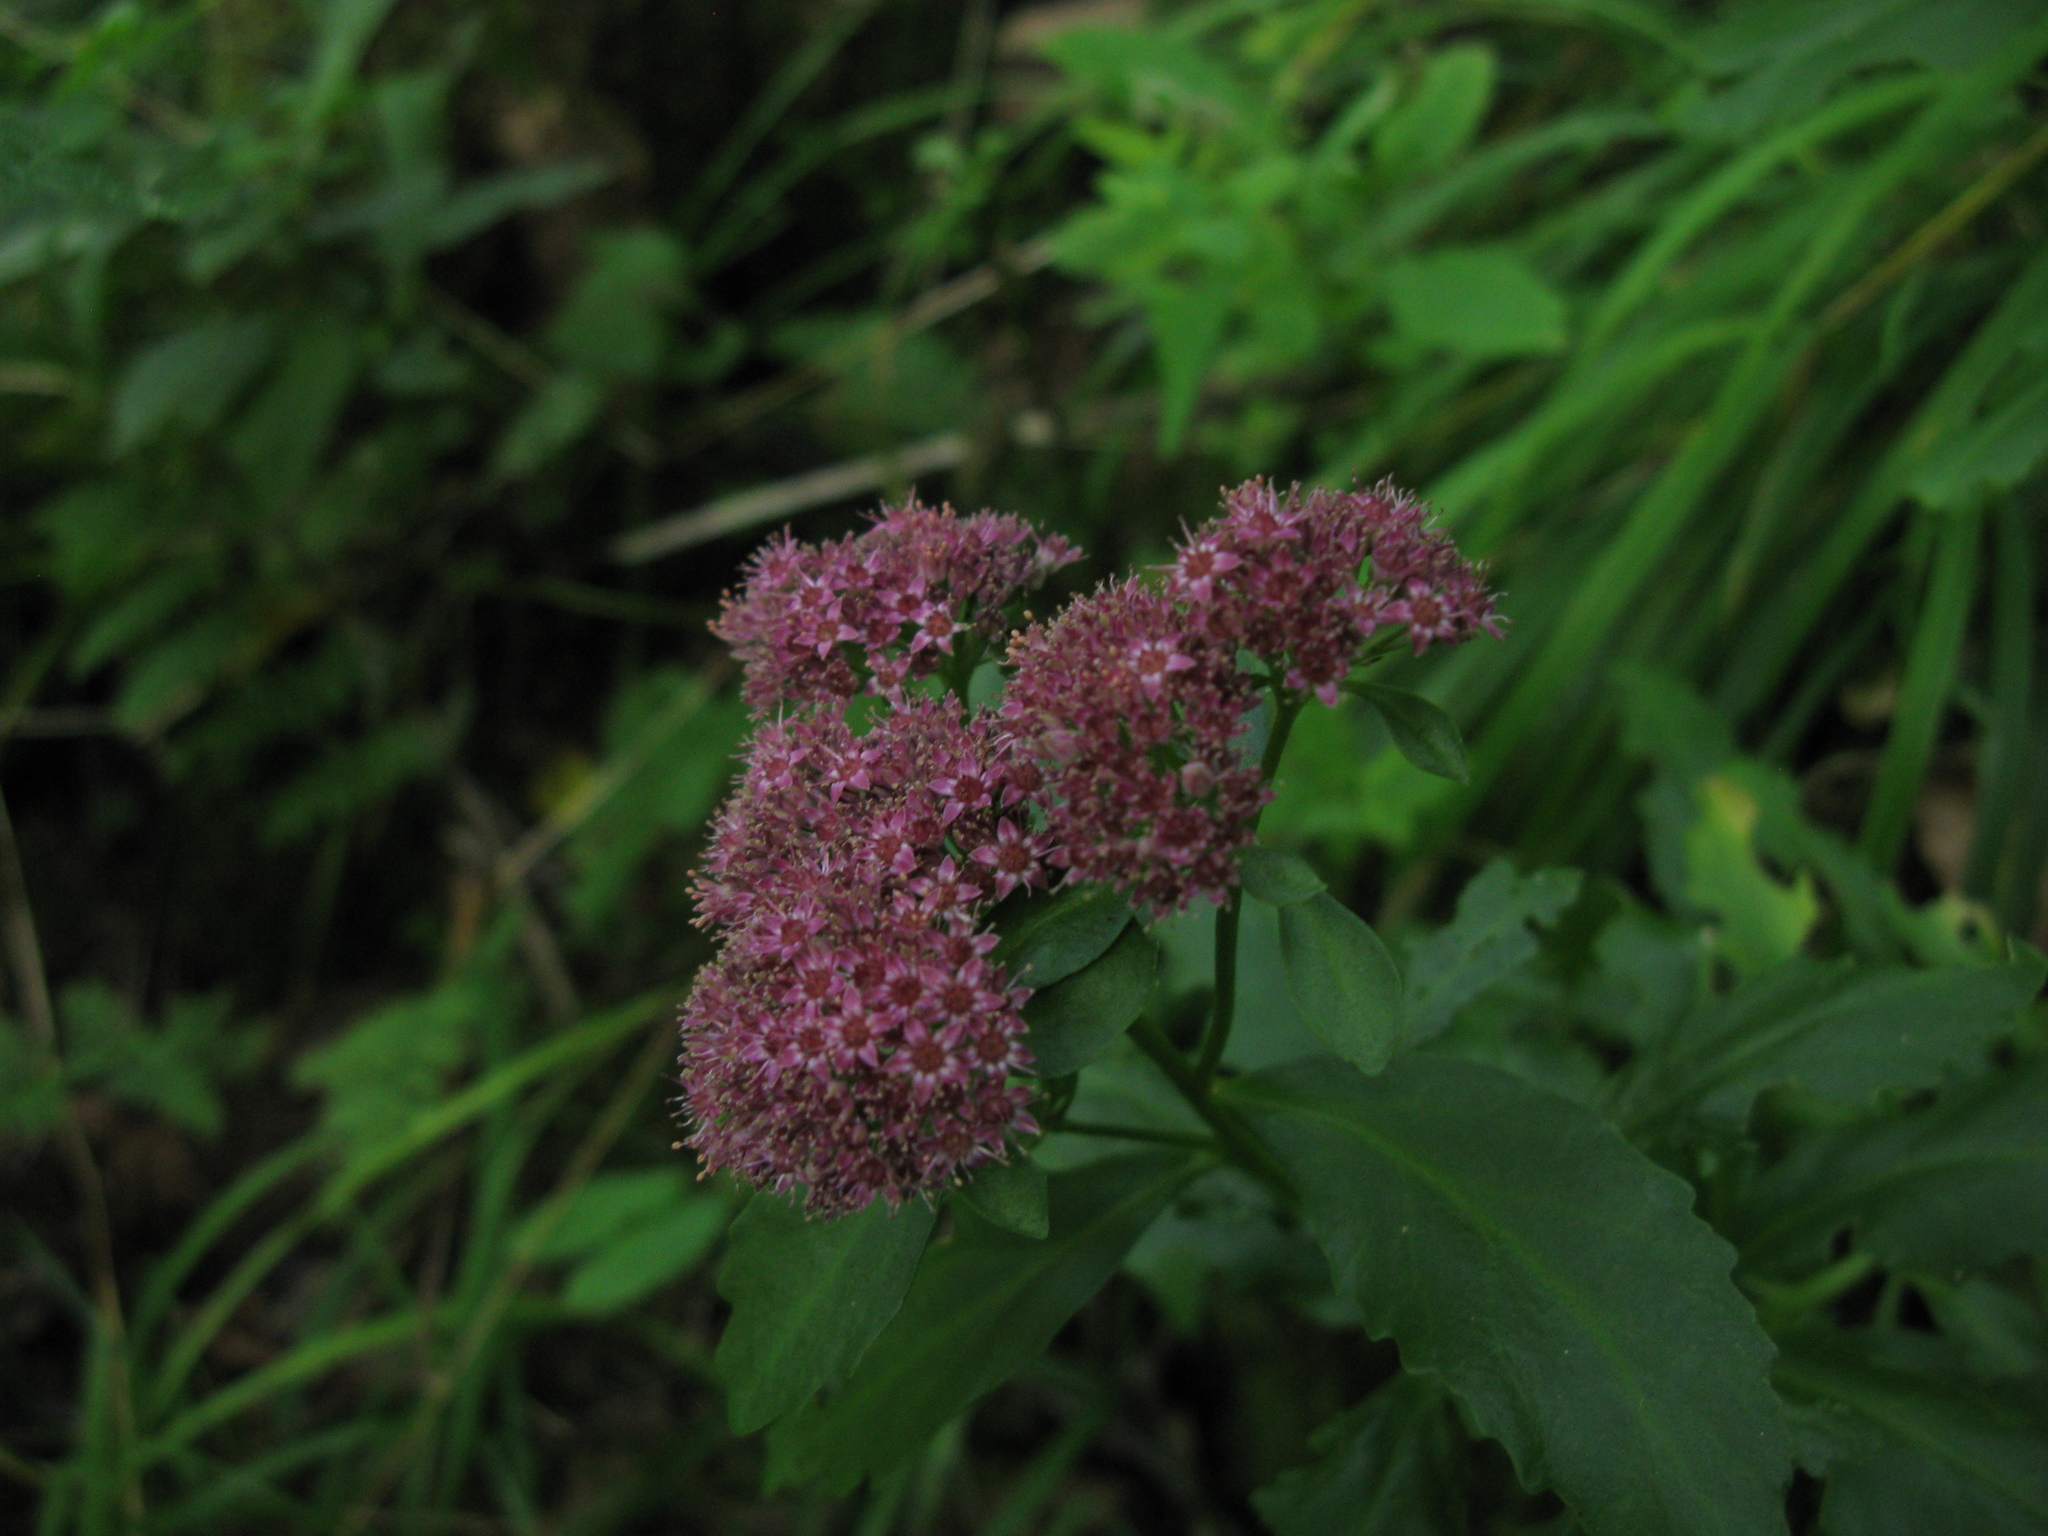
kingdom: Plantae
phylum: Tracheophyta
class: Magnoliopsida
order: Saxifragales
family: Crassulaceae
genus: Hylotelephium
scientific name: Hylotelephium vulgare
